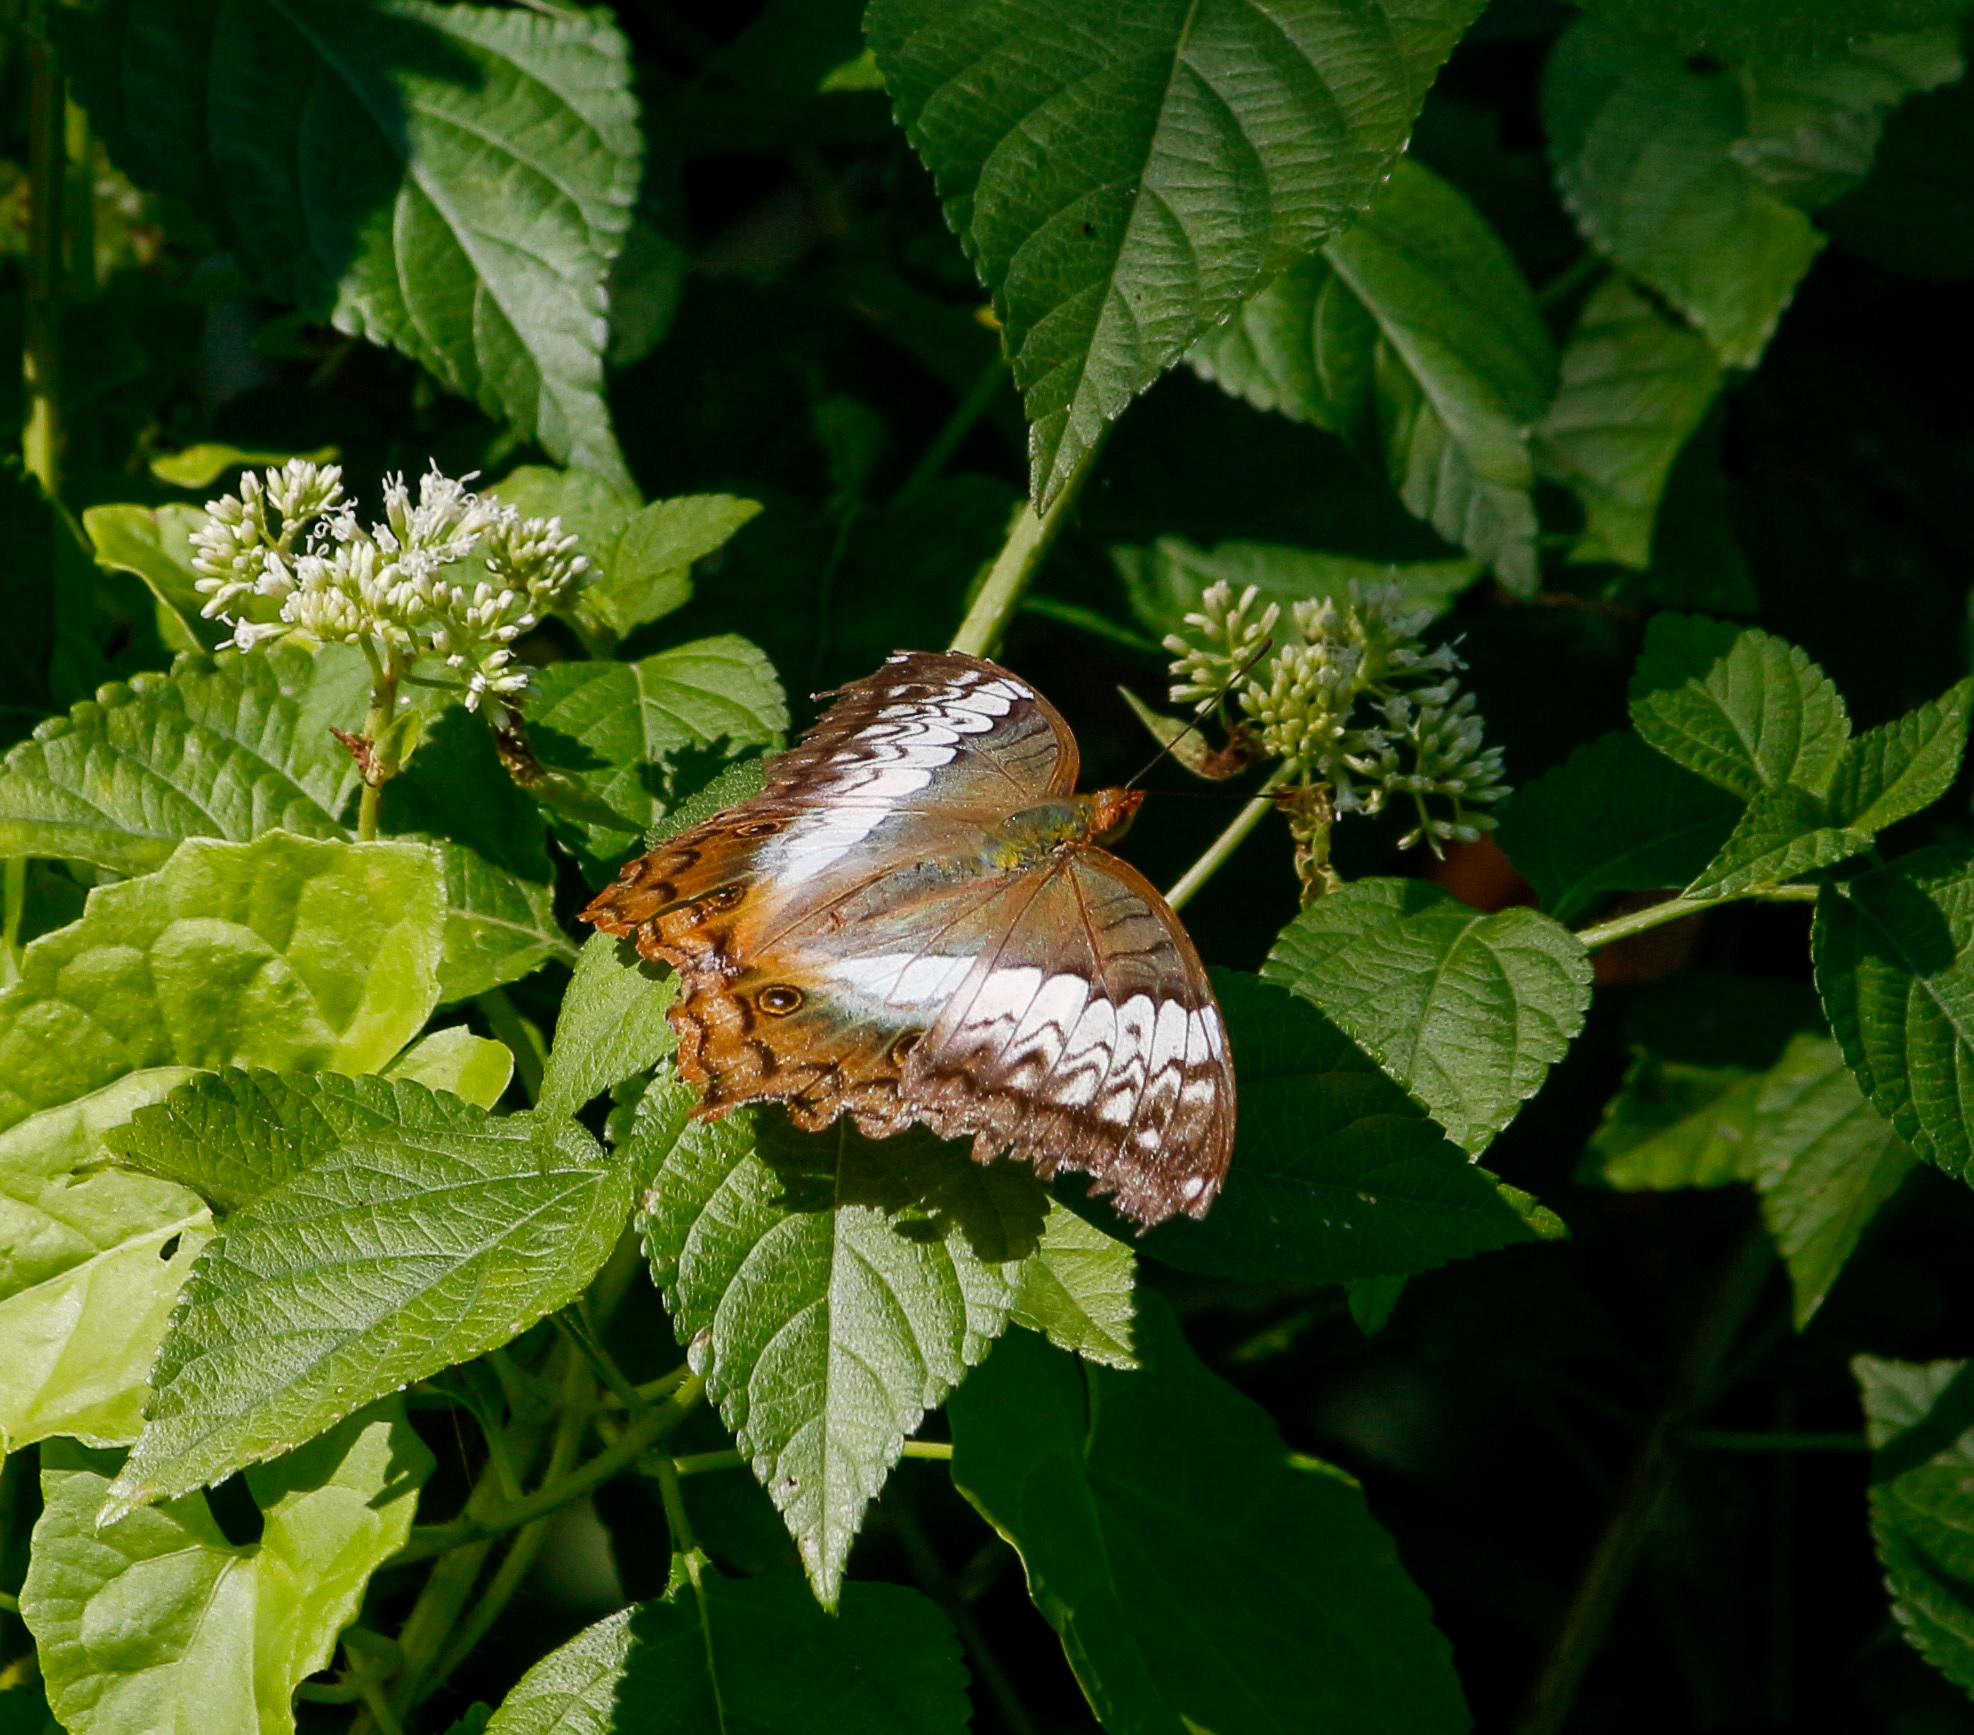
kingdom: Animalia
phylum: Arthropoda
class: Insecta
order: Lepidoptera
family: Nymphalidae
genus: Vindula
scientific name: Vindula erota
